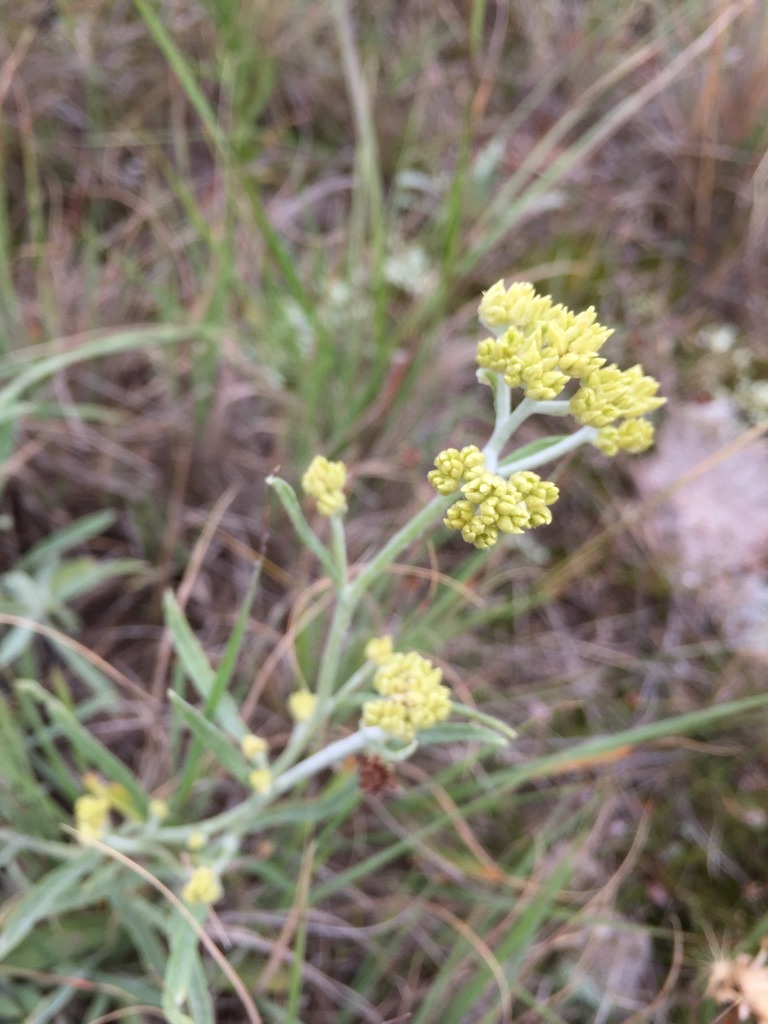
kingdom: Plantae
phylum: Tracheophyta
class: Magnoliopsida
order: Asterales
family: Asteraceae
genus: Achyrocline
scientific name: Achyrocline satureioides
